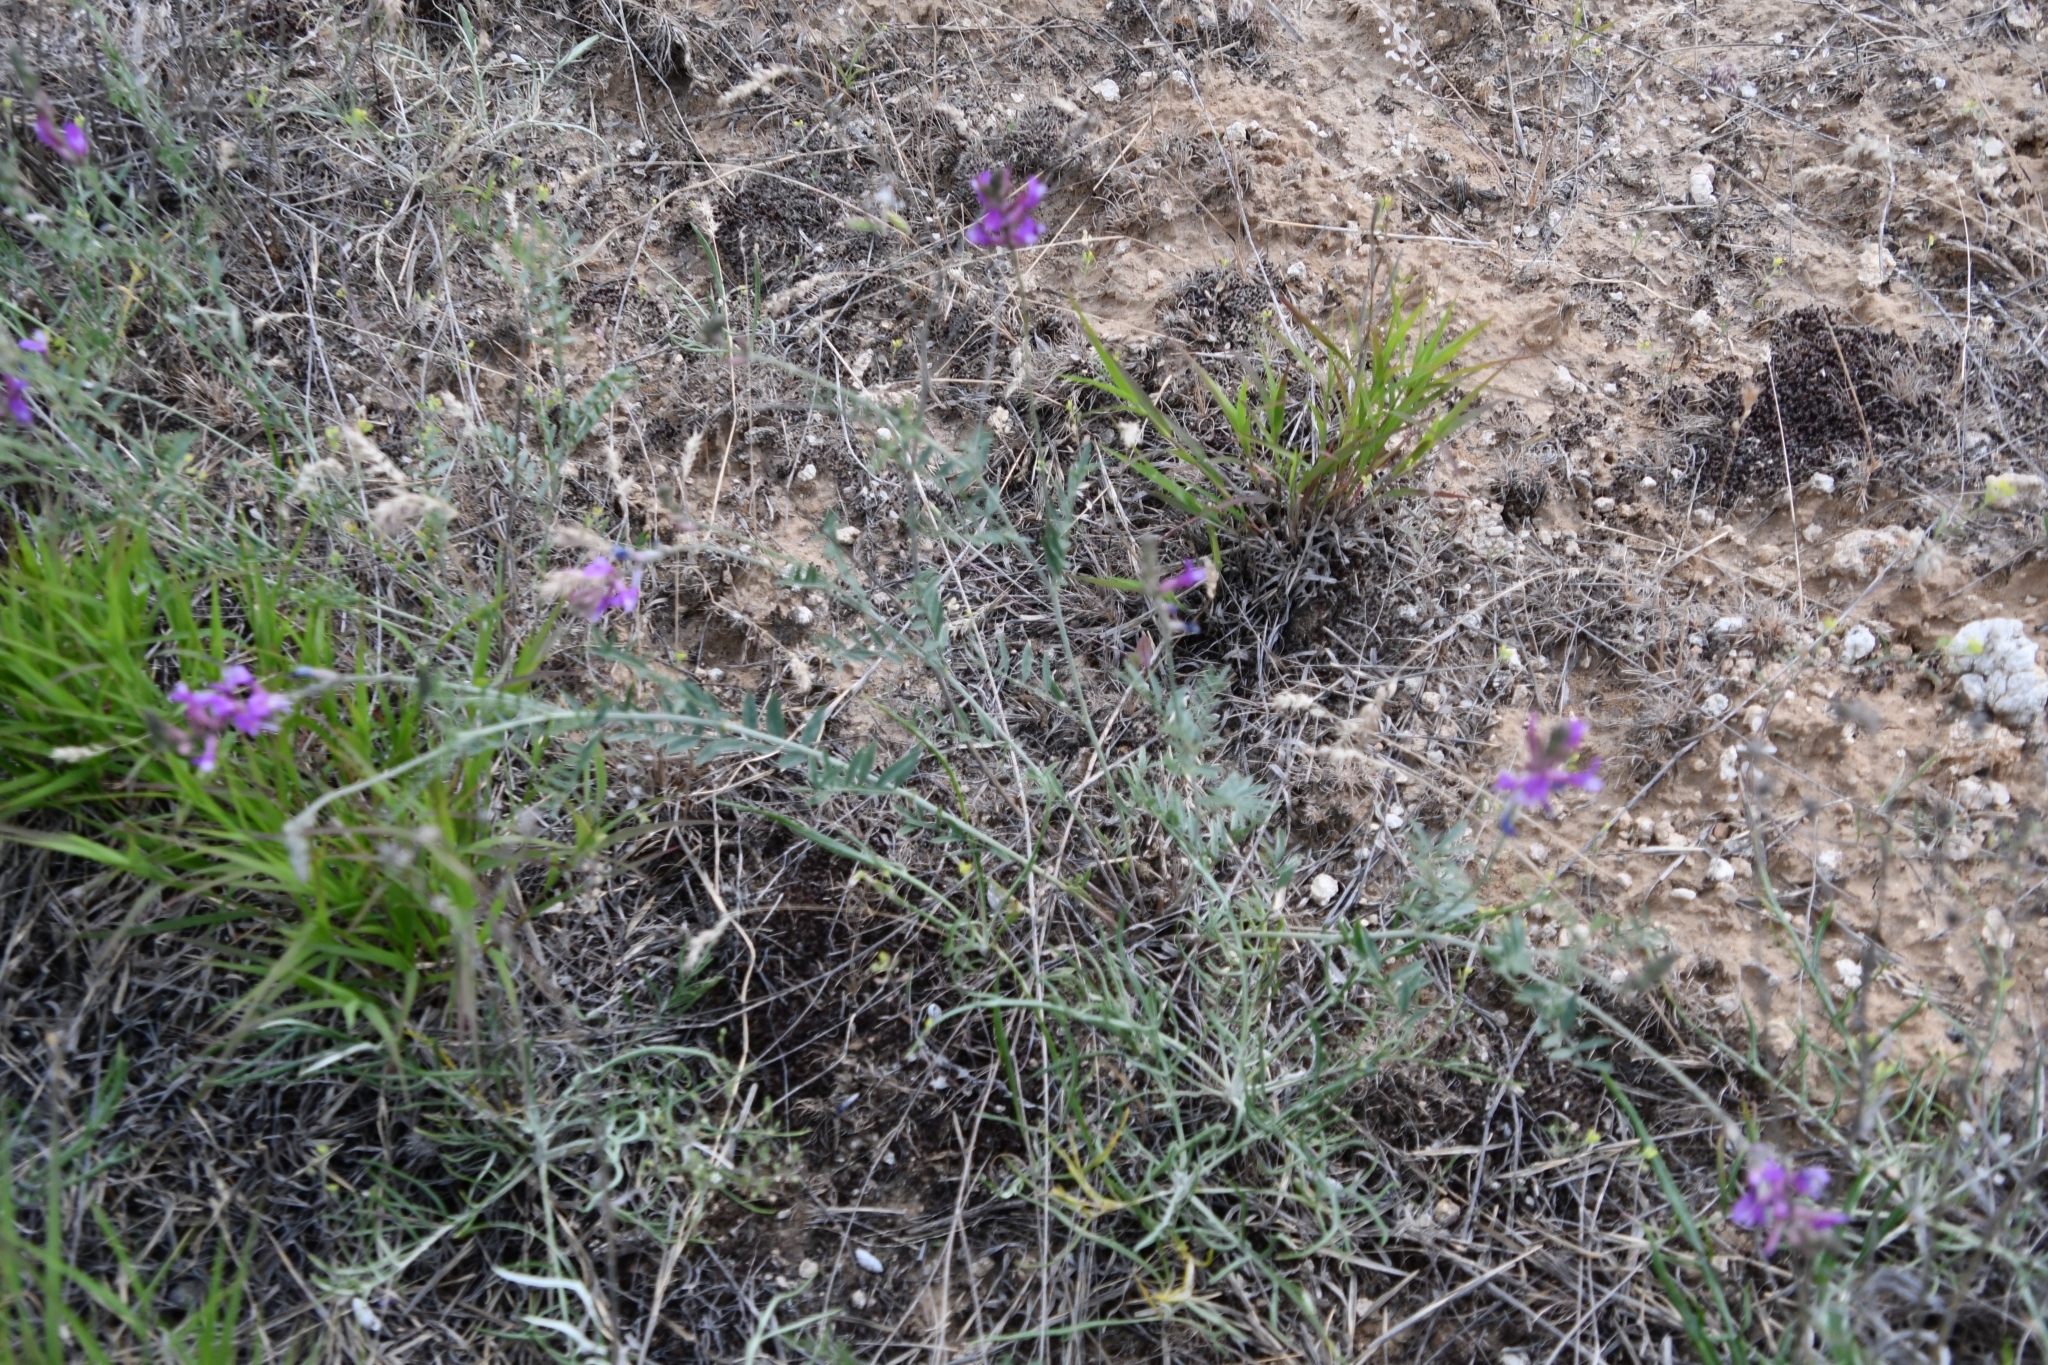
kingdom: Plantae
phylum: Tracheophyta
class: Magnoliopsida
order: Fabales
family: Fabaceae
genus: Astragalus
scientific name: Astragalus varius
